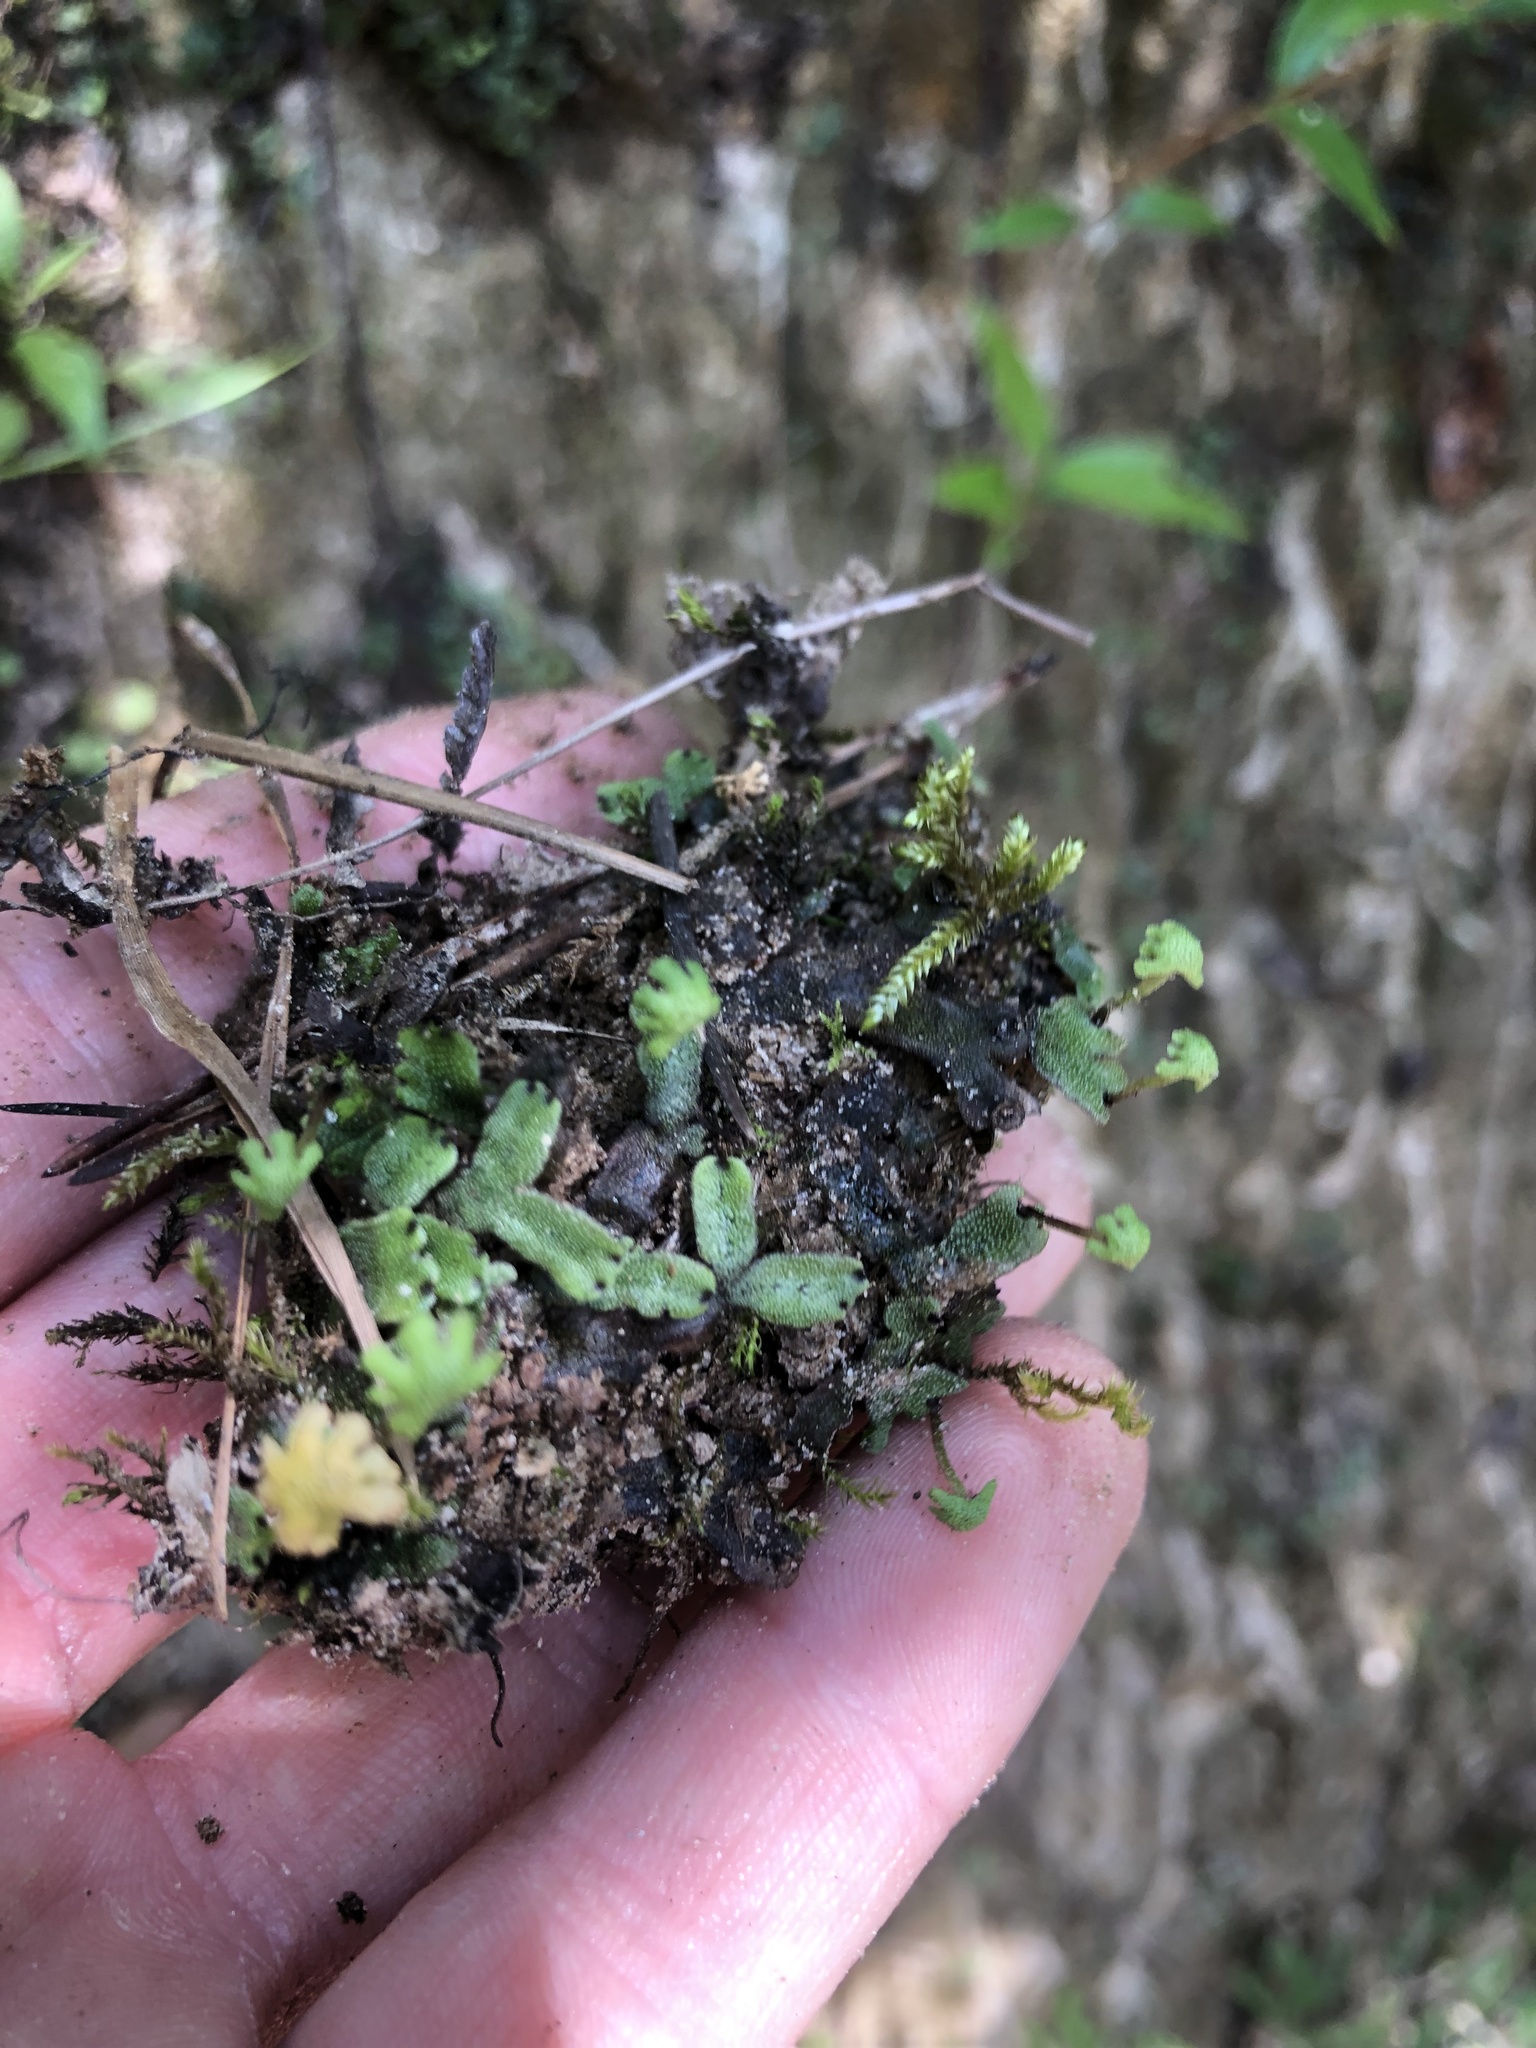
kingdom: Plantae
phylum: Marchantiophyta
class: Marchantiopsida
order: Marchantiales
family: Marchantiaceae
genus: Marchantia
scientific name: Marchantia inflexa
